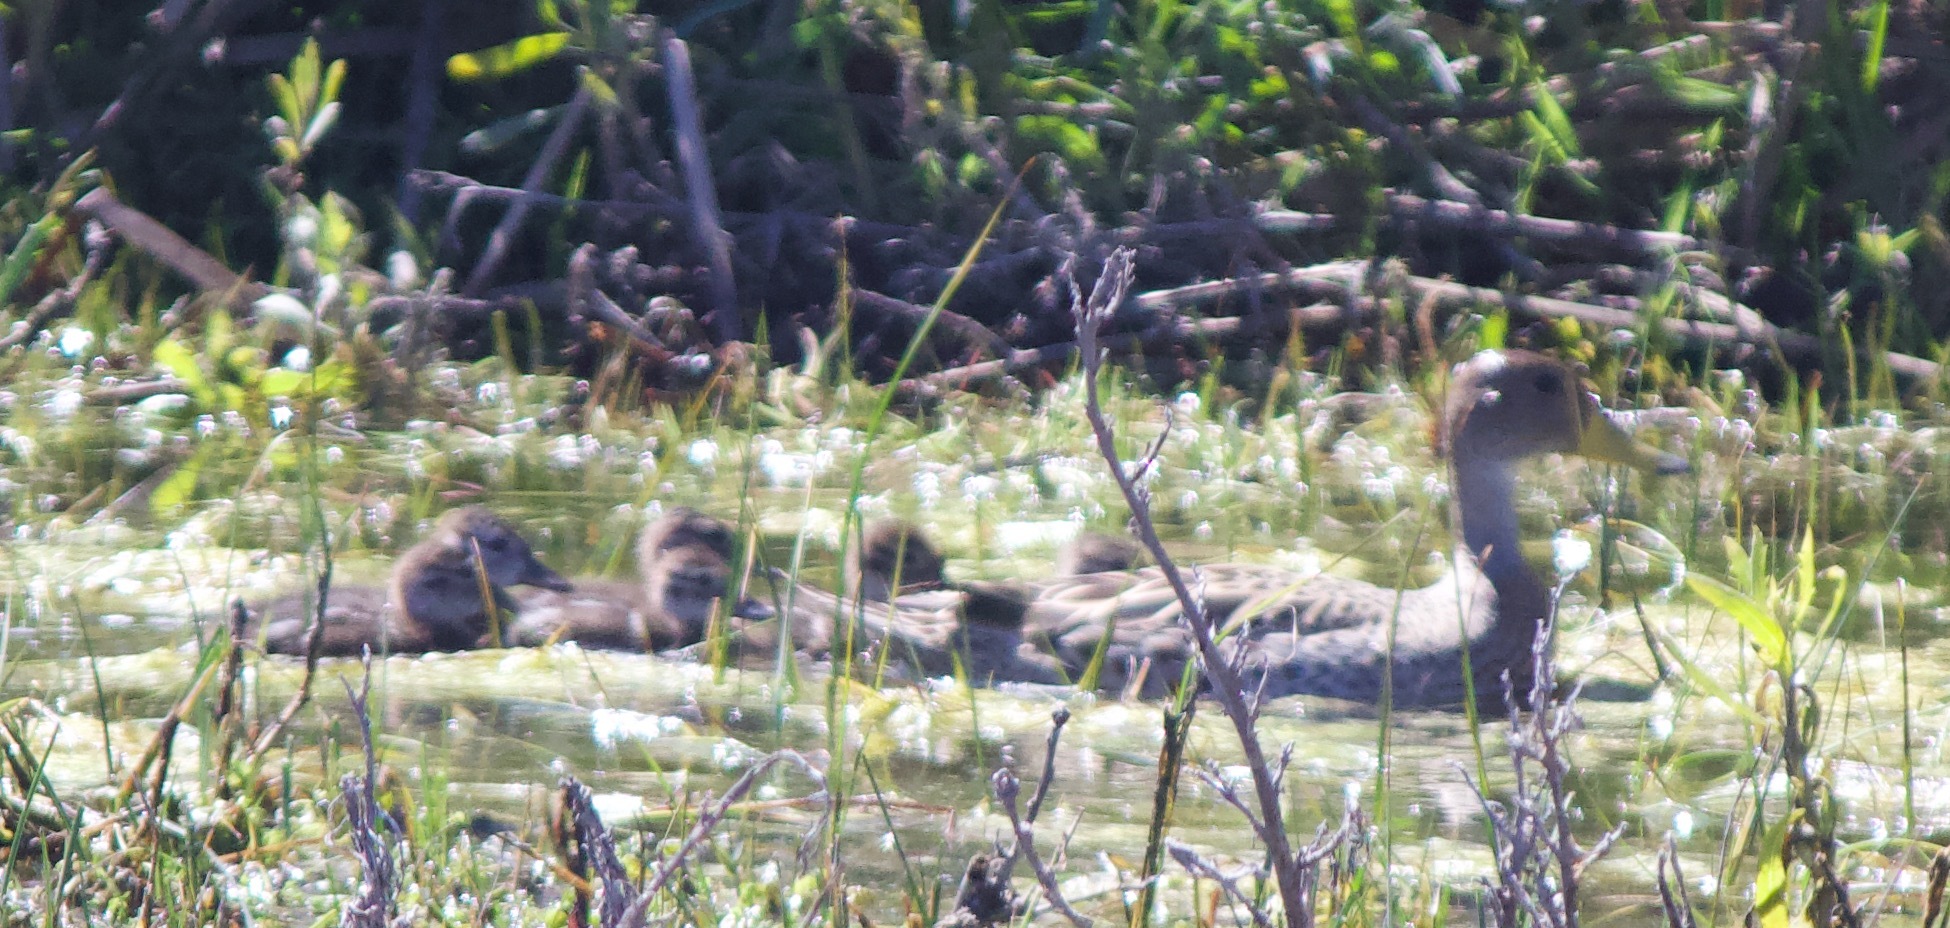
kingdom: Animalia
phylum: Chordata
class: Aves
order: Anseriformes
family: Anatidae
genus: Anas
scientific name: Anas georgica
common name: Yellow-billed pintail
